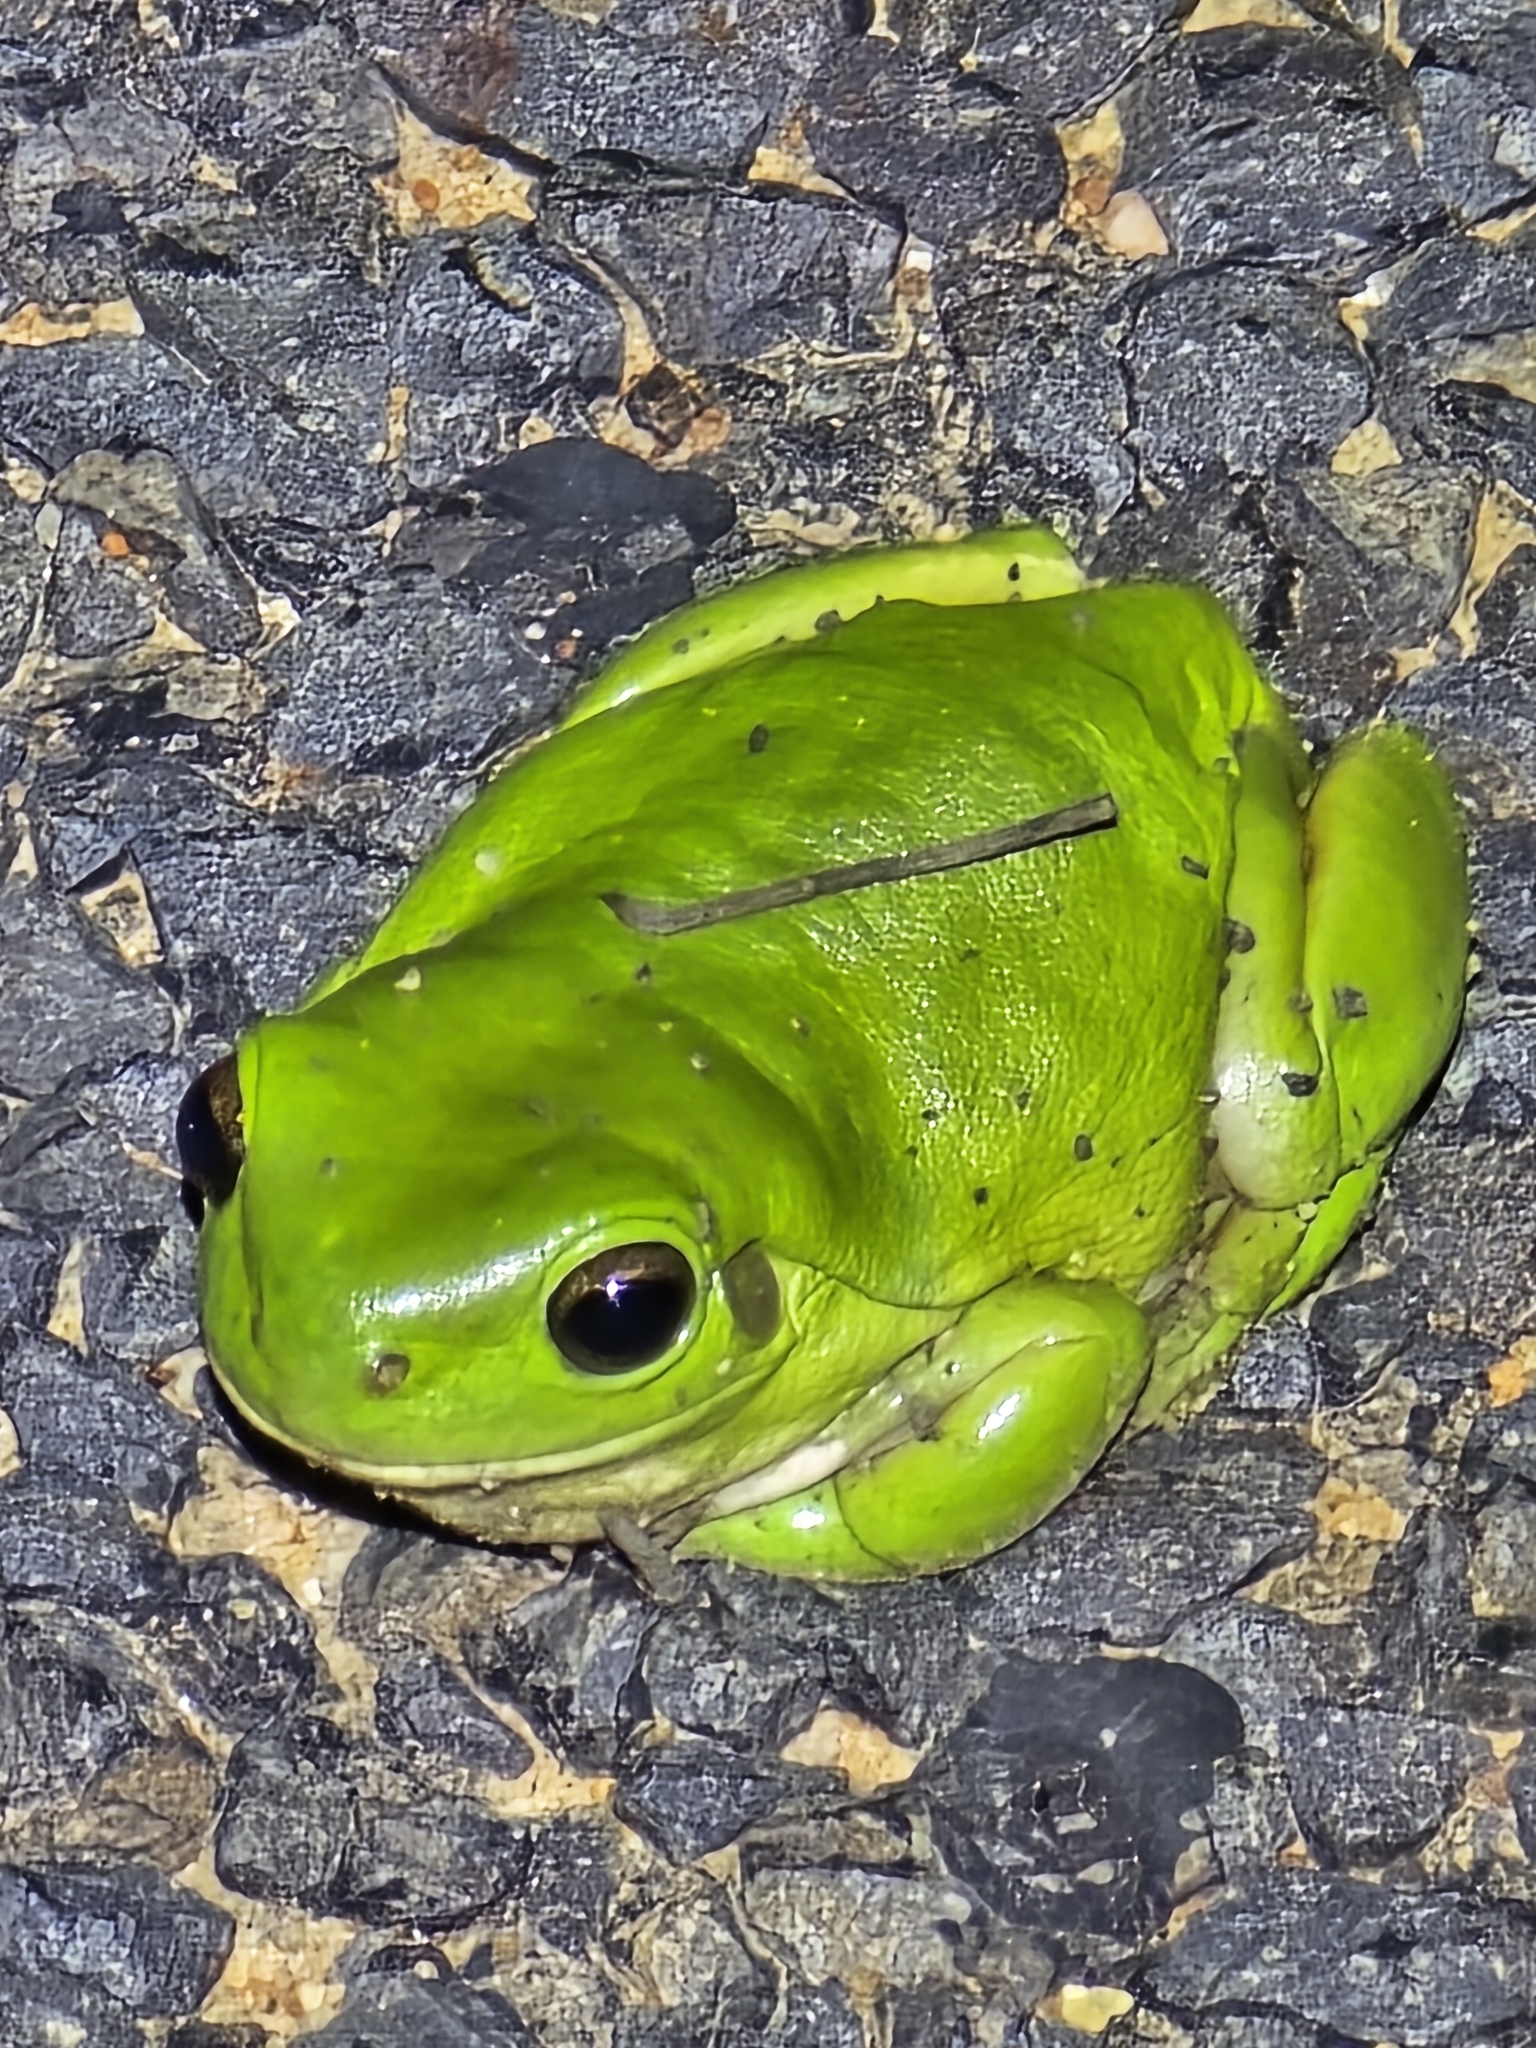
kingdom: Animalia
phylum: Chordata
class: Amphibia
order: Anura
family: Pelodryadidae
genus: Ranoidea
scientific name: Ranoidea caerulea
